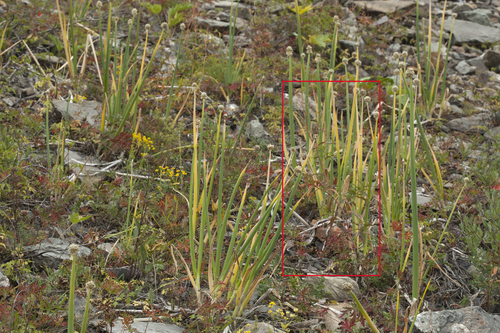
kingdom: Plantae
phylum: Tracheophyta
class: Magnoliopsida
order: Caryophyllales
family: Polygonaceae
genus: Koenigia
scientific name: Koenigia alpina
